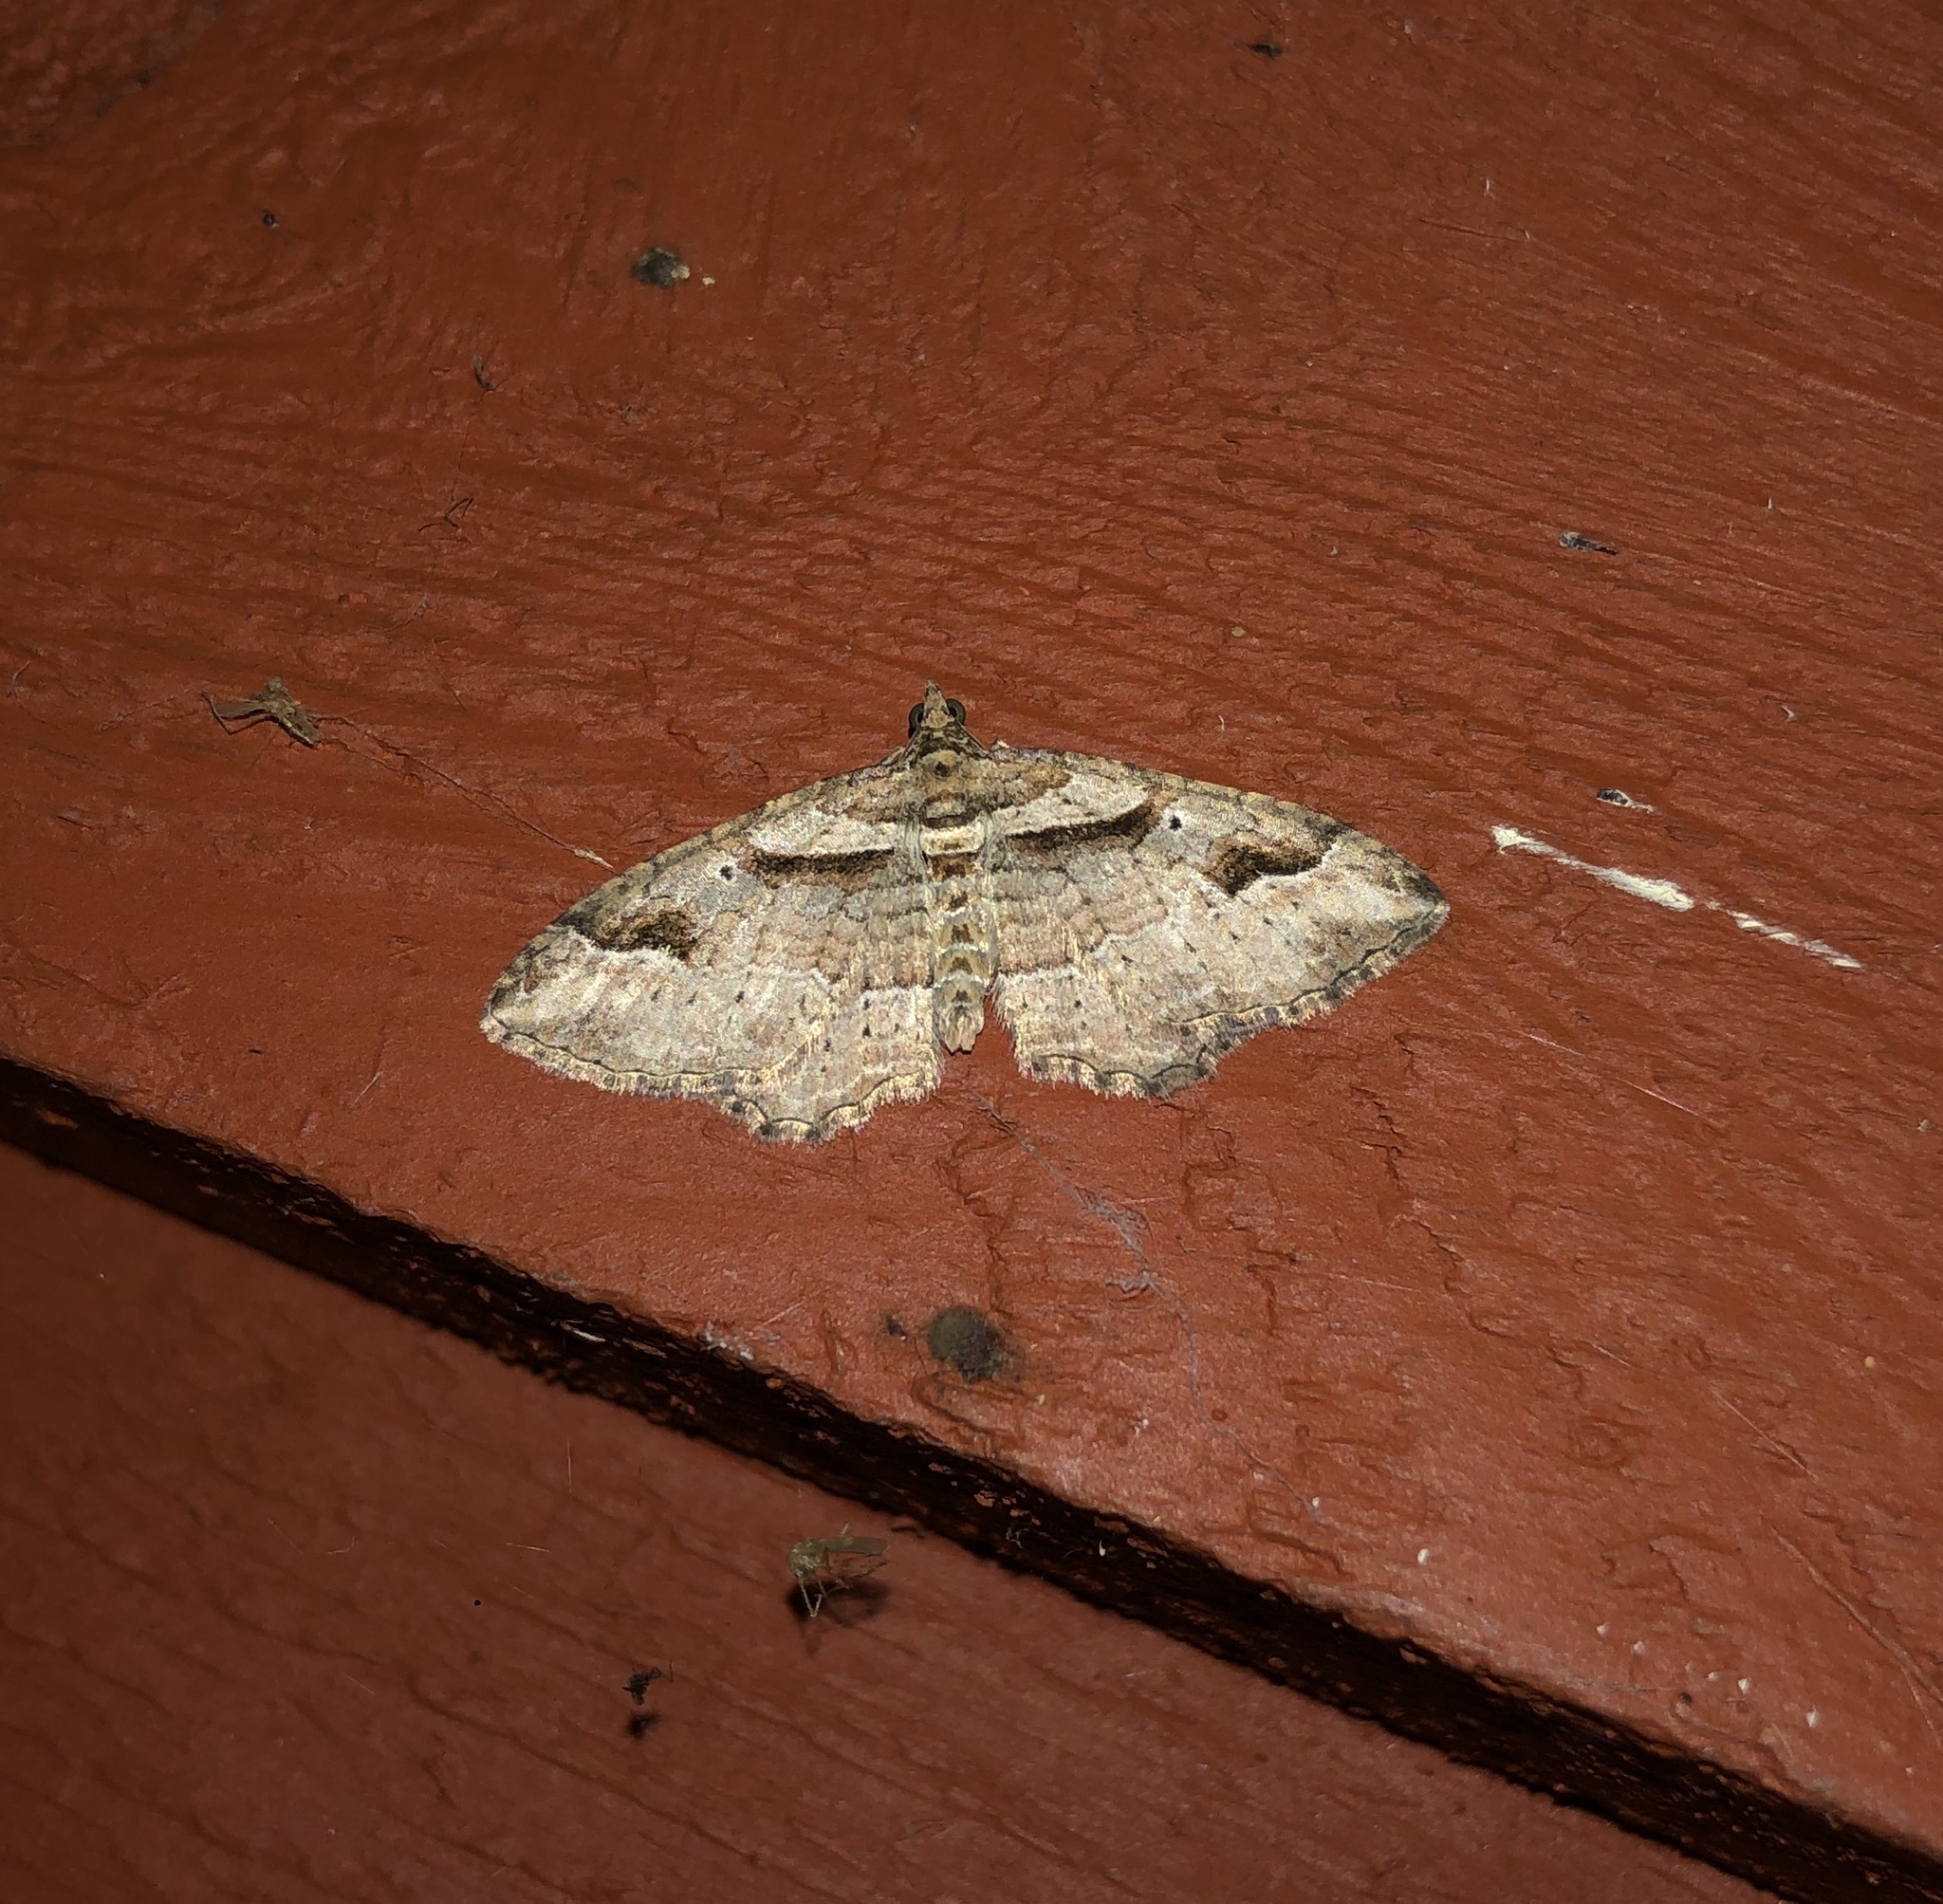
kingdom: Animalia
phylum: Arthropoda
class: Insecta
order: Lepidoptera
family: Geometridae
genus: Costaconvexa
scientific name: Costaconvexa centrostrigaria
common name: Bent-line carpet
